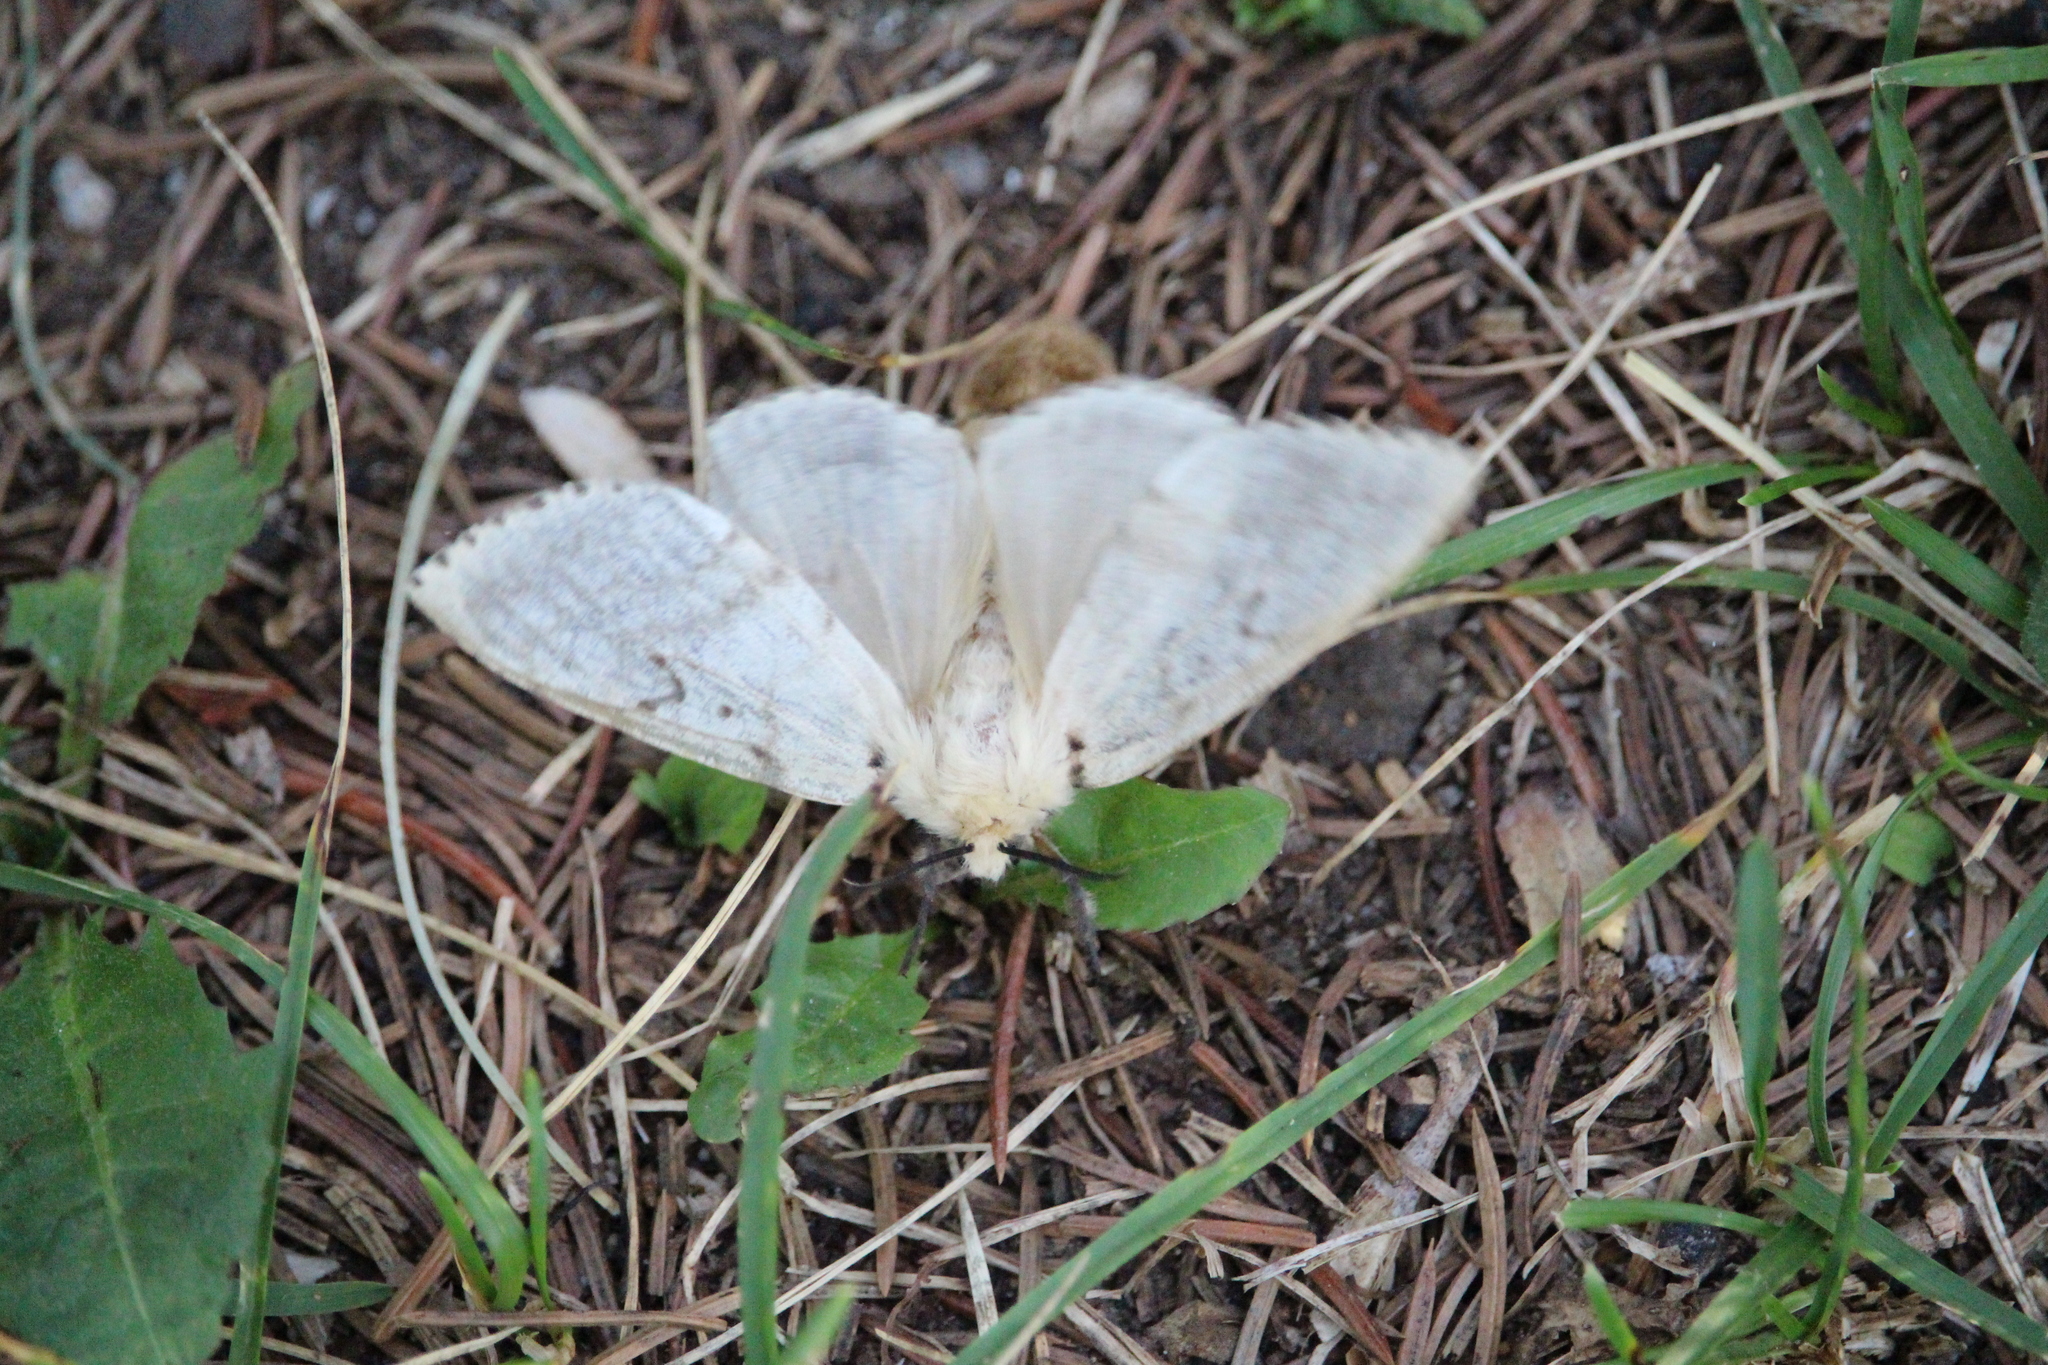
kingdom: Animalia
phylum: Arthropoda
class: Insecta
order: Lepidoptera
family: Erebidae
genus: Lymantria
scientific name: Lymantria dispar
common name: Gypsy moth
